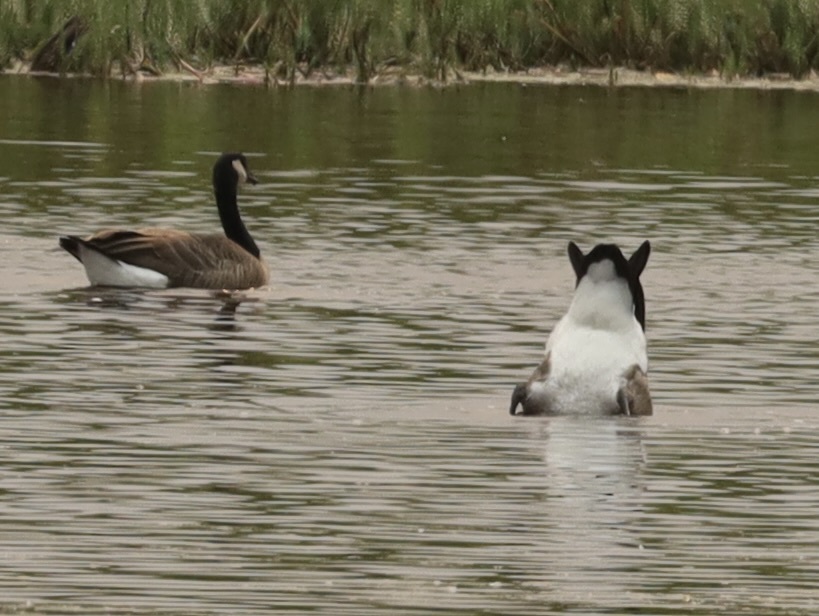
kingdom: Animalia
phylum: Chordata
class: Aves
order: Anseriformes
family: Anatidae
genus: Branta
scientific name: Branta canadensis
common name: Canada goose
